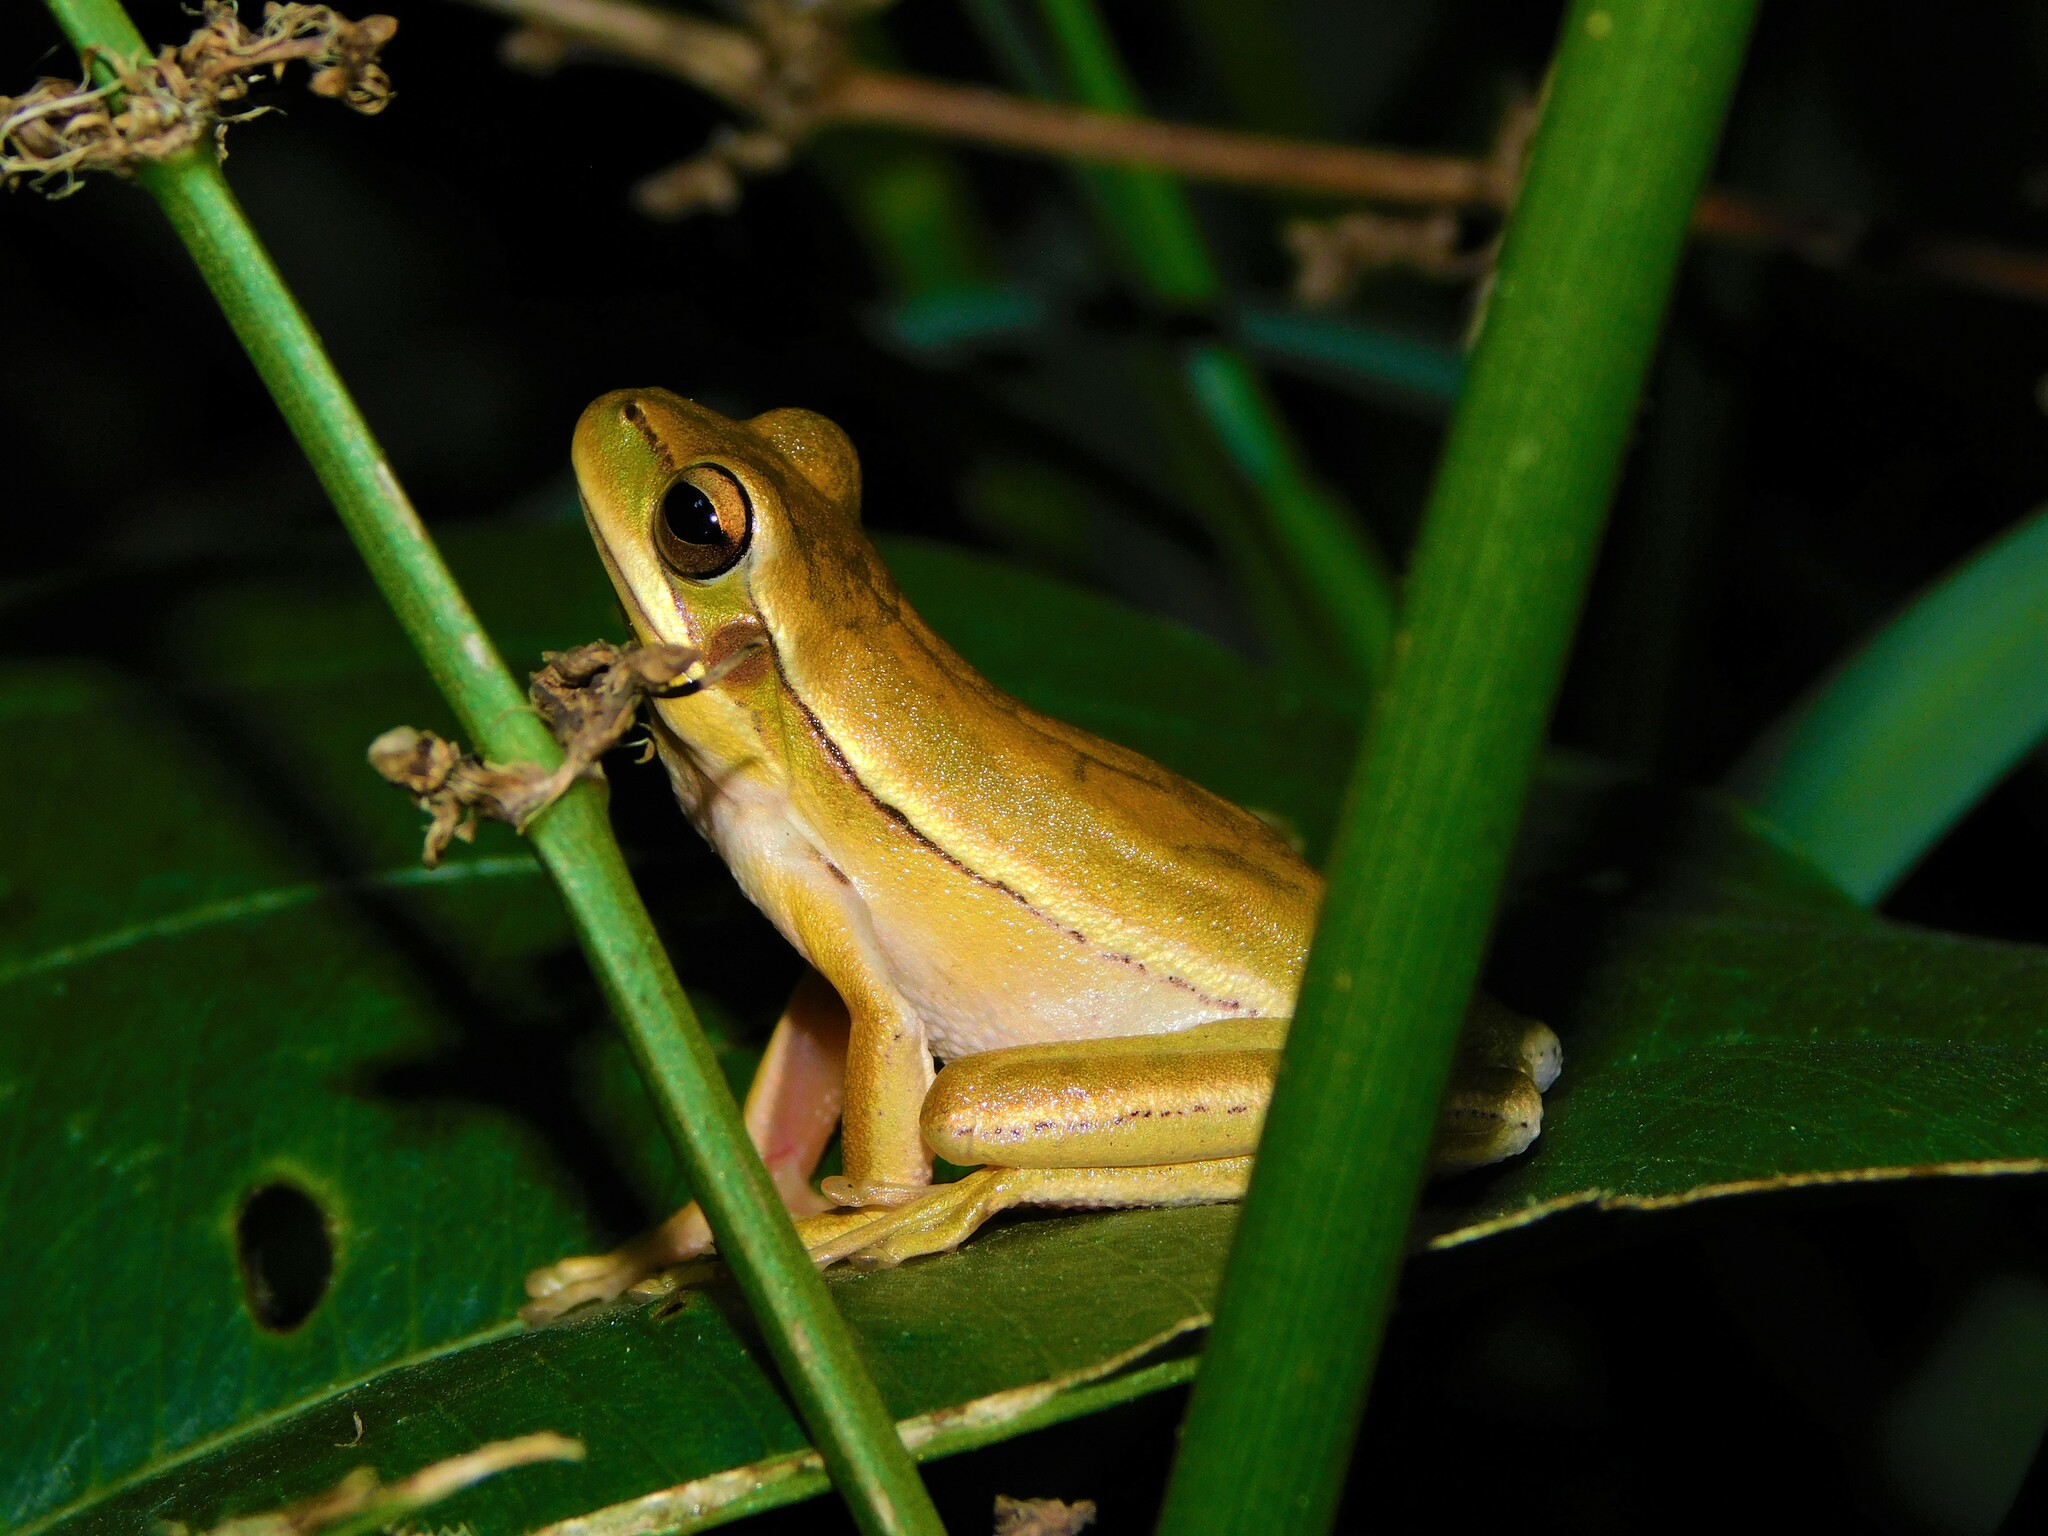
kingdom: Animalia
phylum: Chordata
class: Amphibia
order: Anura
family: Hylidae
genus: Boana
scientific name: Boana pulchella
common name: Montevideo treefrog
